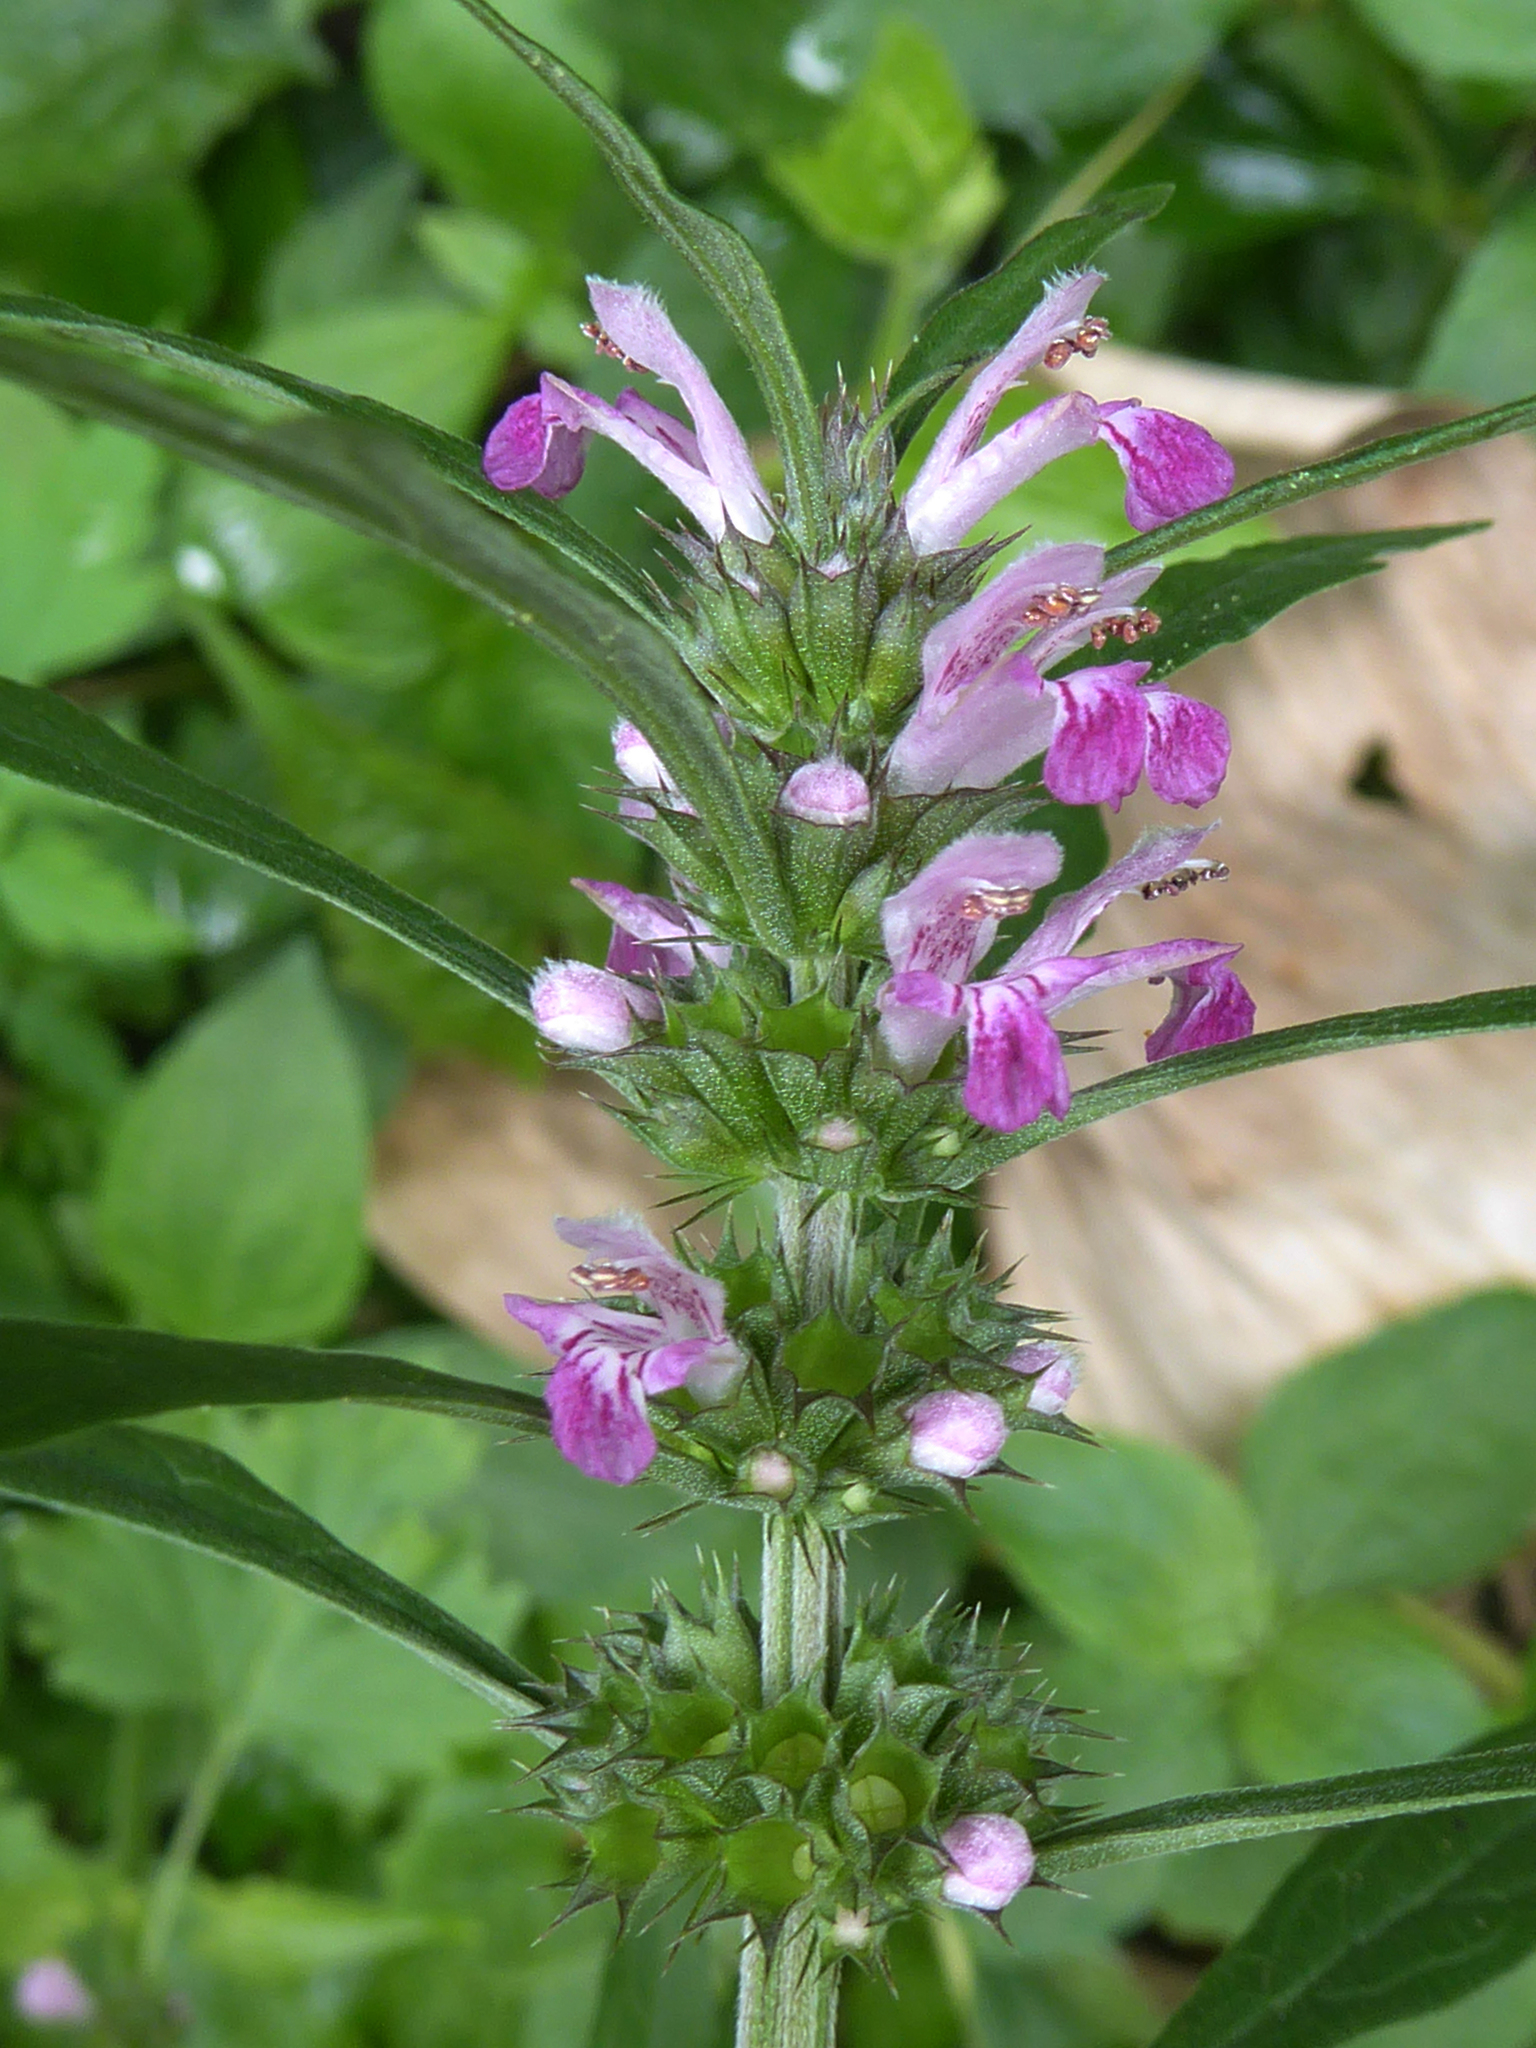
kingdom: Plantae
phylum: Tracheophyta
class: Magnoliopsida
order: Lamiales
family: Lamiaceae
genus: Leonurus
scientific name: Leonurus sibiricus
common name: Honeyweed
